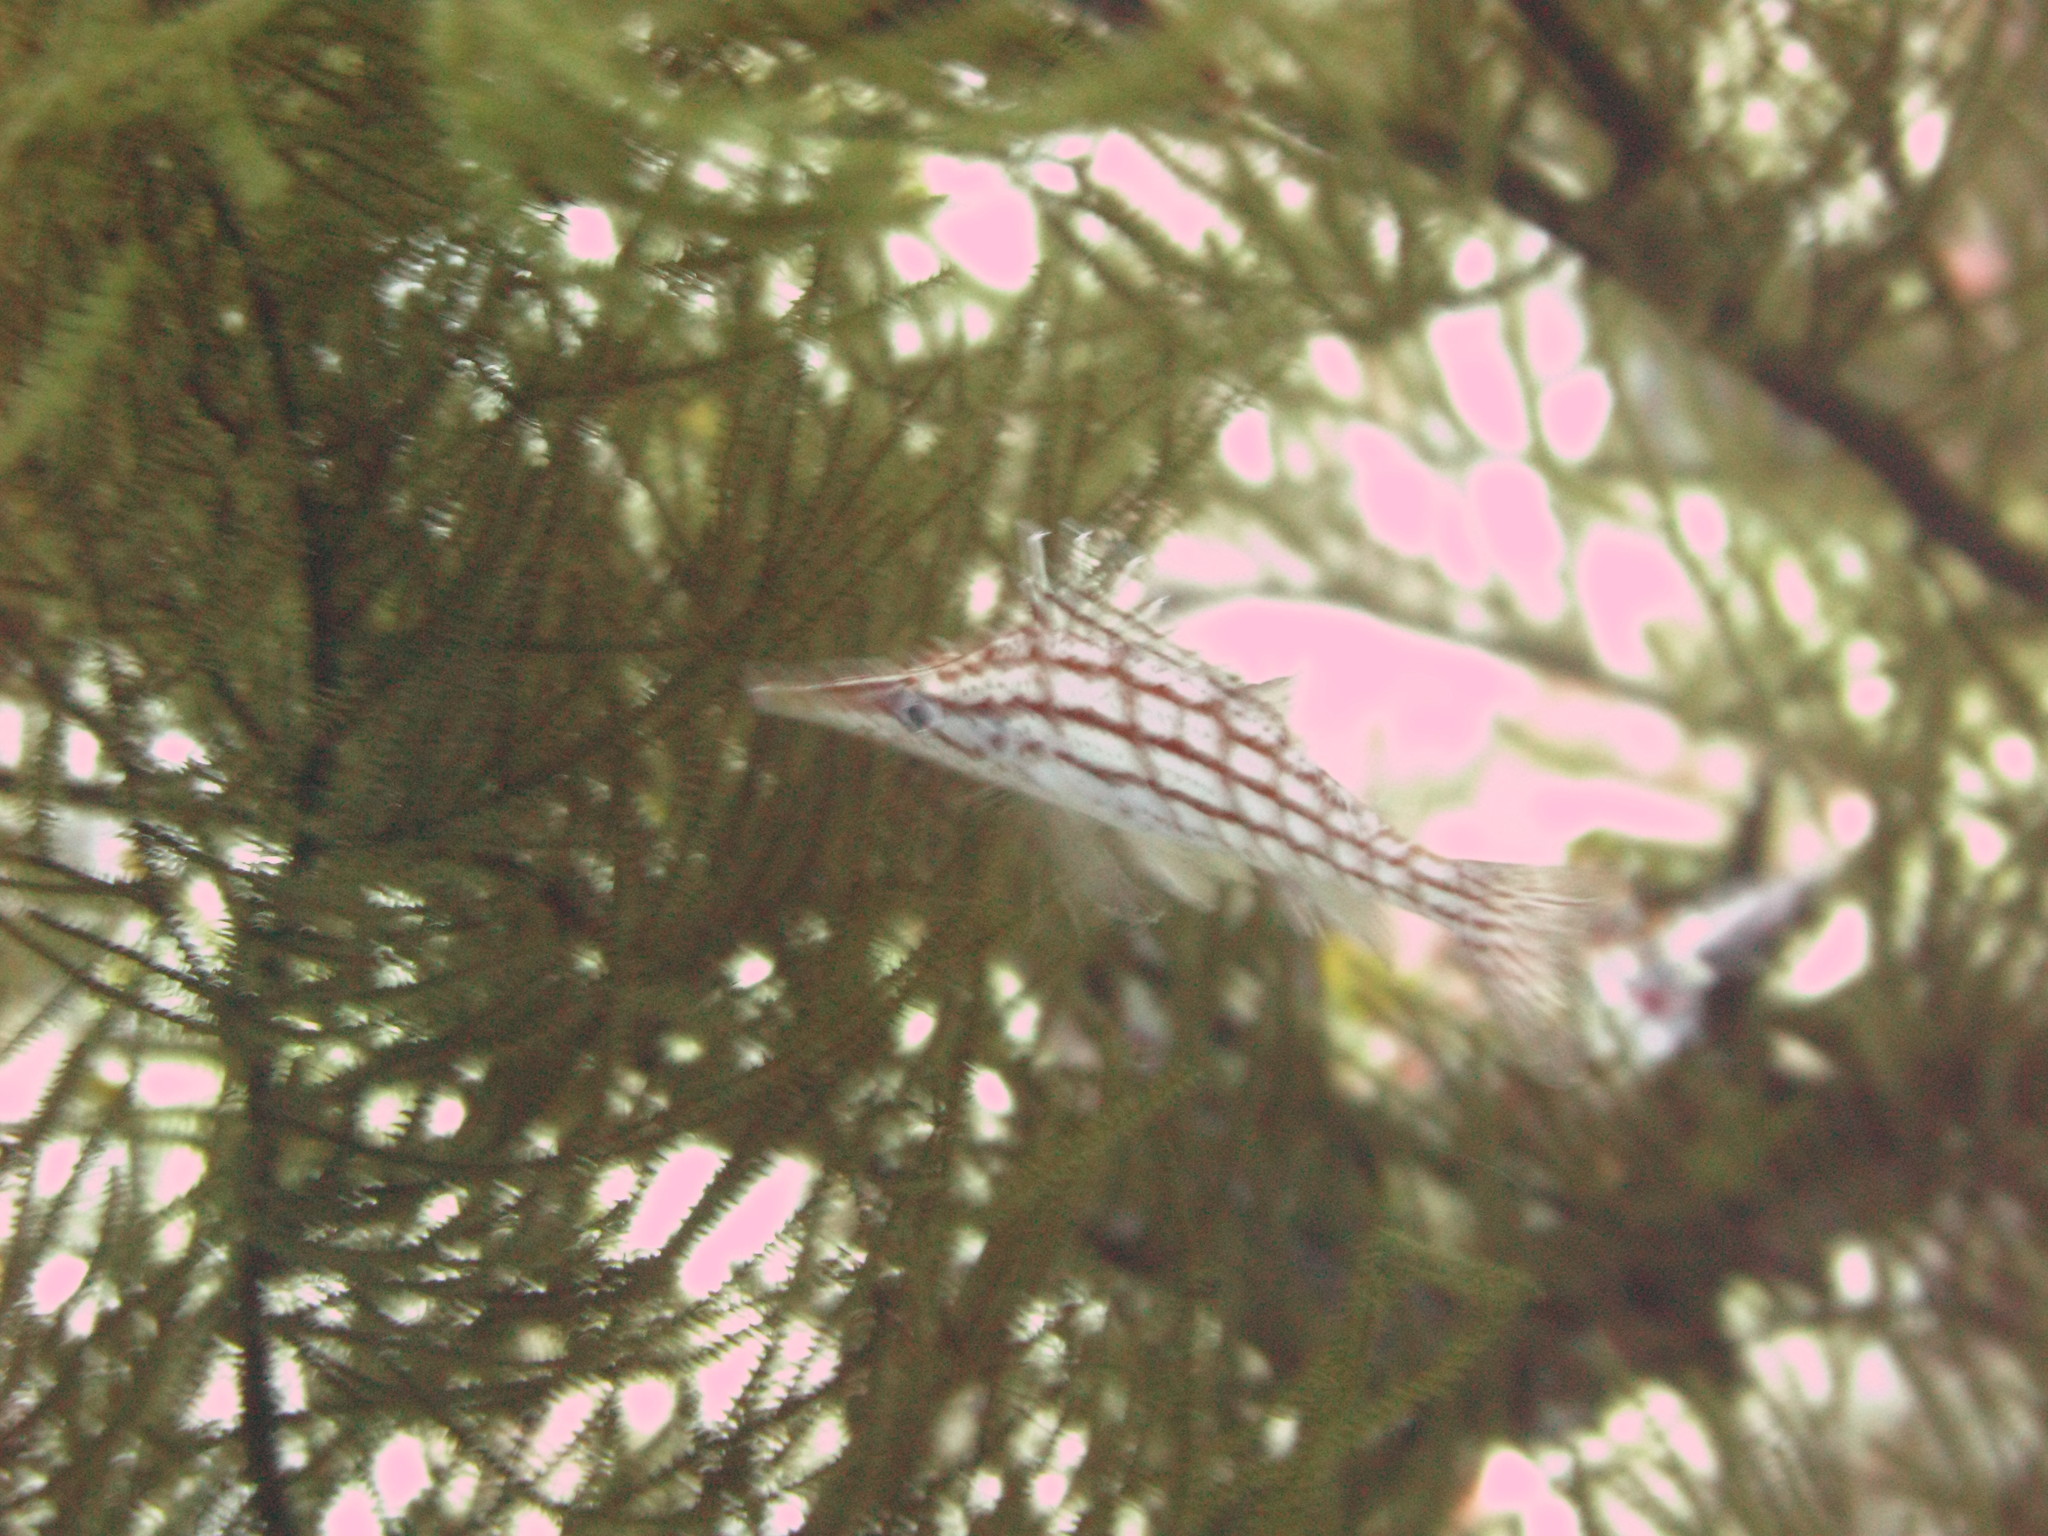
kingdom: Animalia
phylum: Chordata
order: Perciformes
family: Cirrhitidae
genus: Oxycirrhites
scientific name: Oxycirrhites typus
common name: Longnose hawkfish
